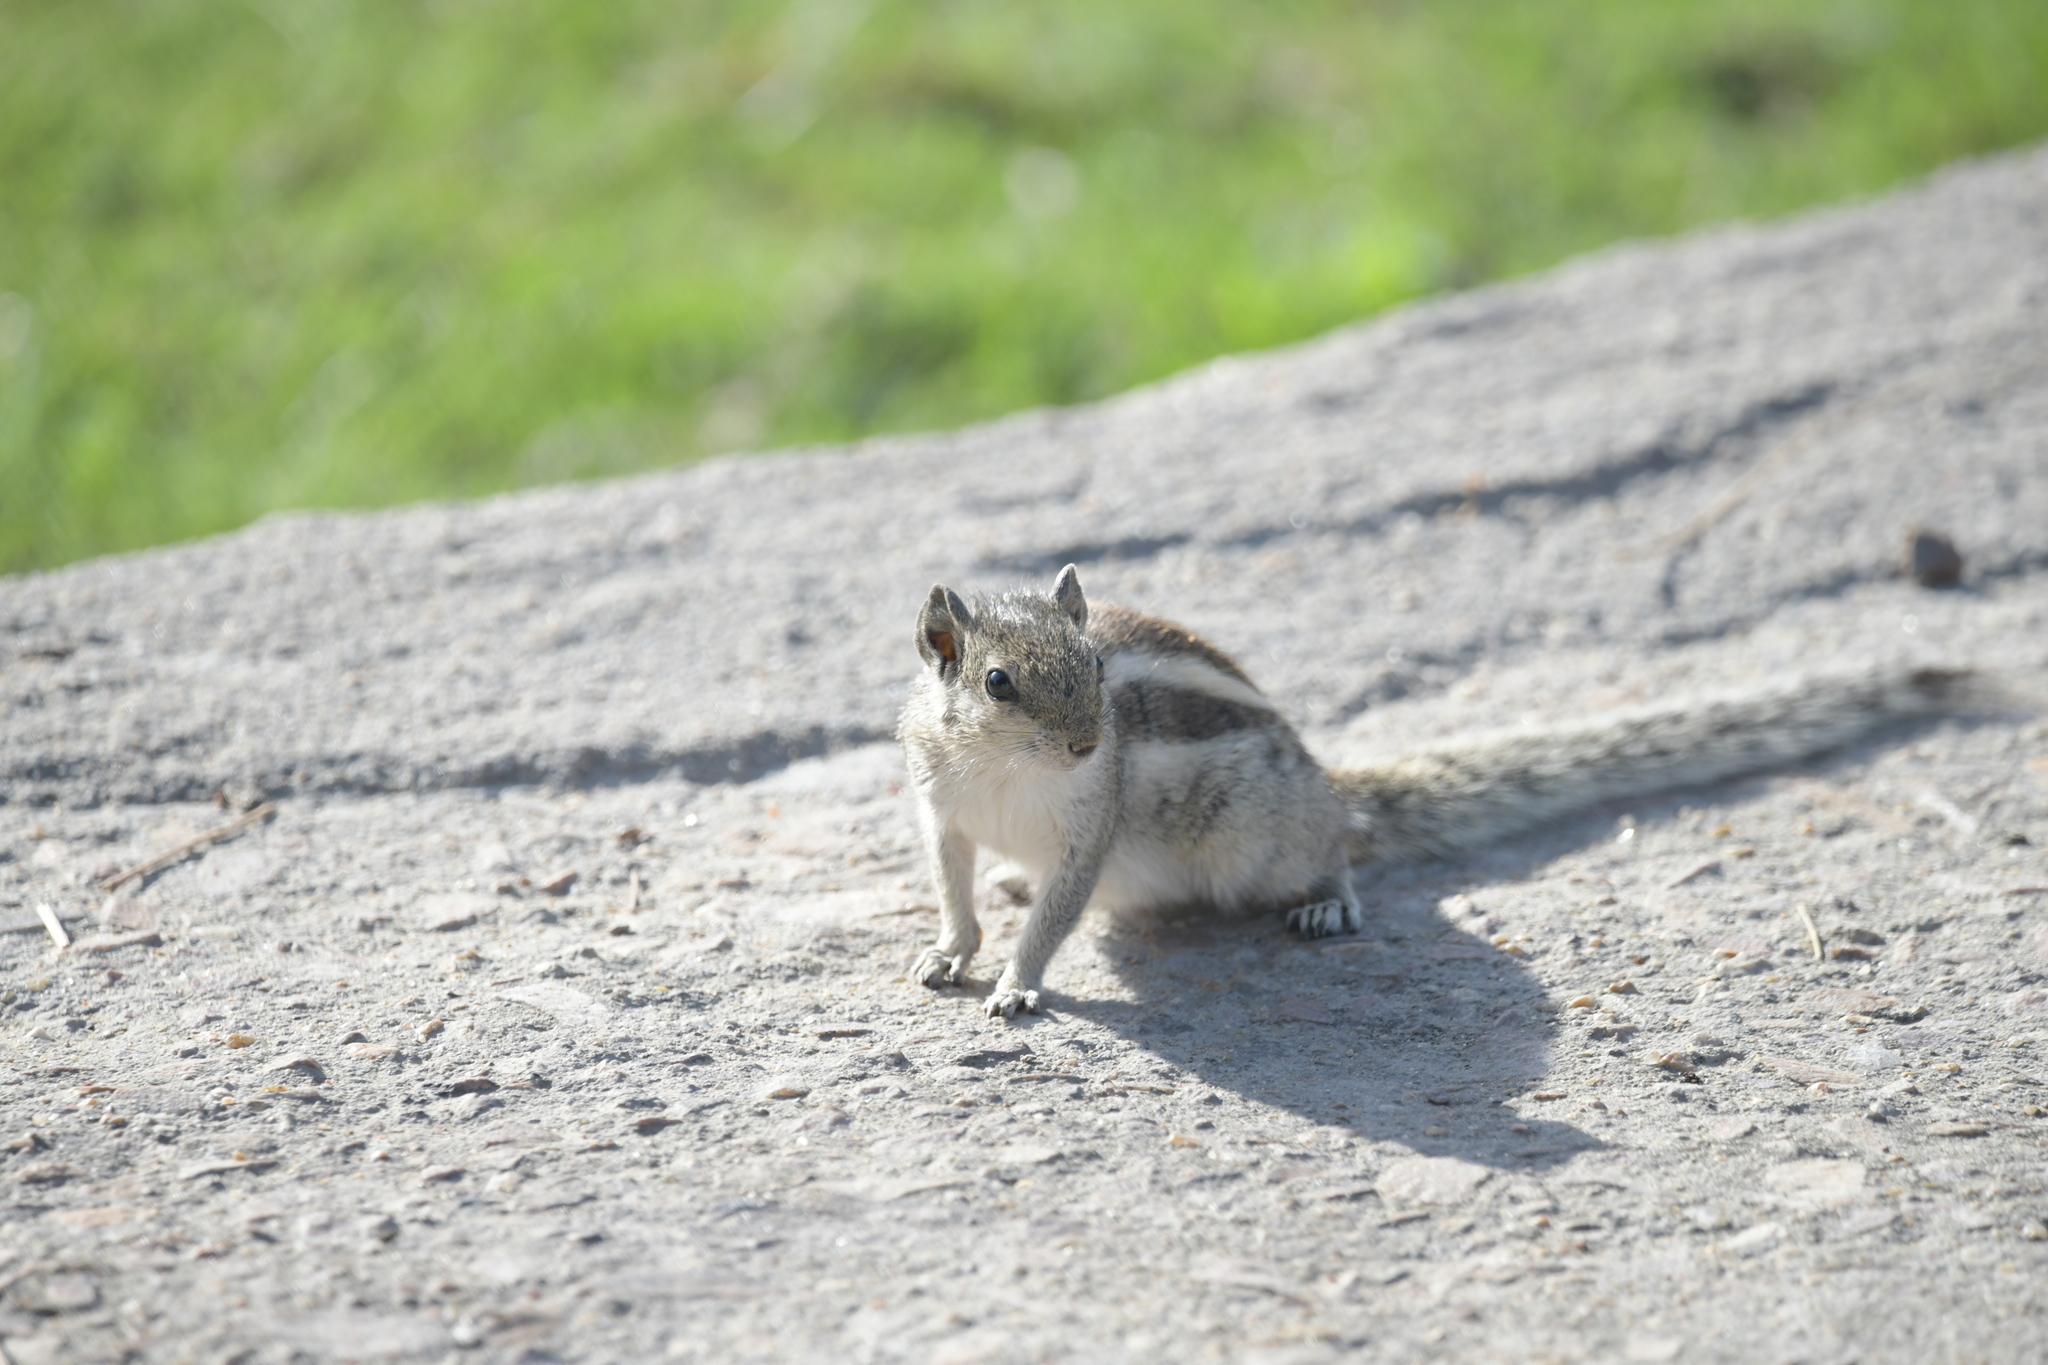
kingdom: Animalia
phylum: Chordata
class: Mammalia
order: Rodentia
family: Sciuridae
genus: Funambulus
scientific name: Funambulus pennantii
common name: Northern palm squirrel
